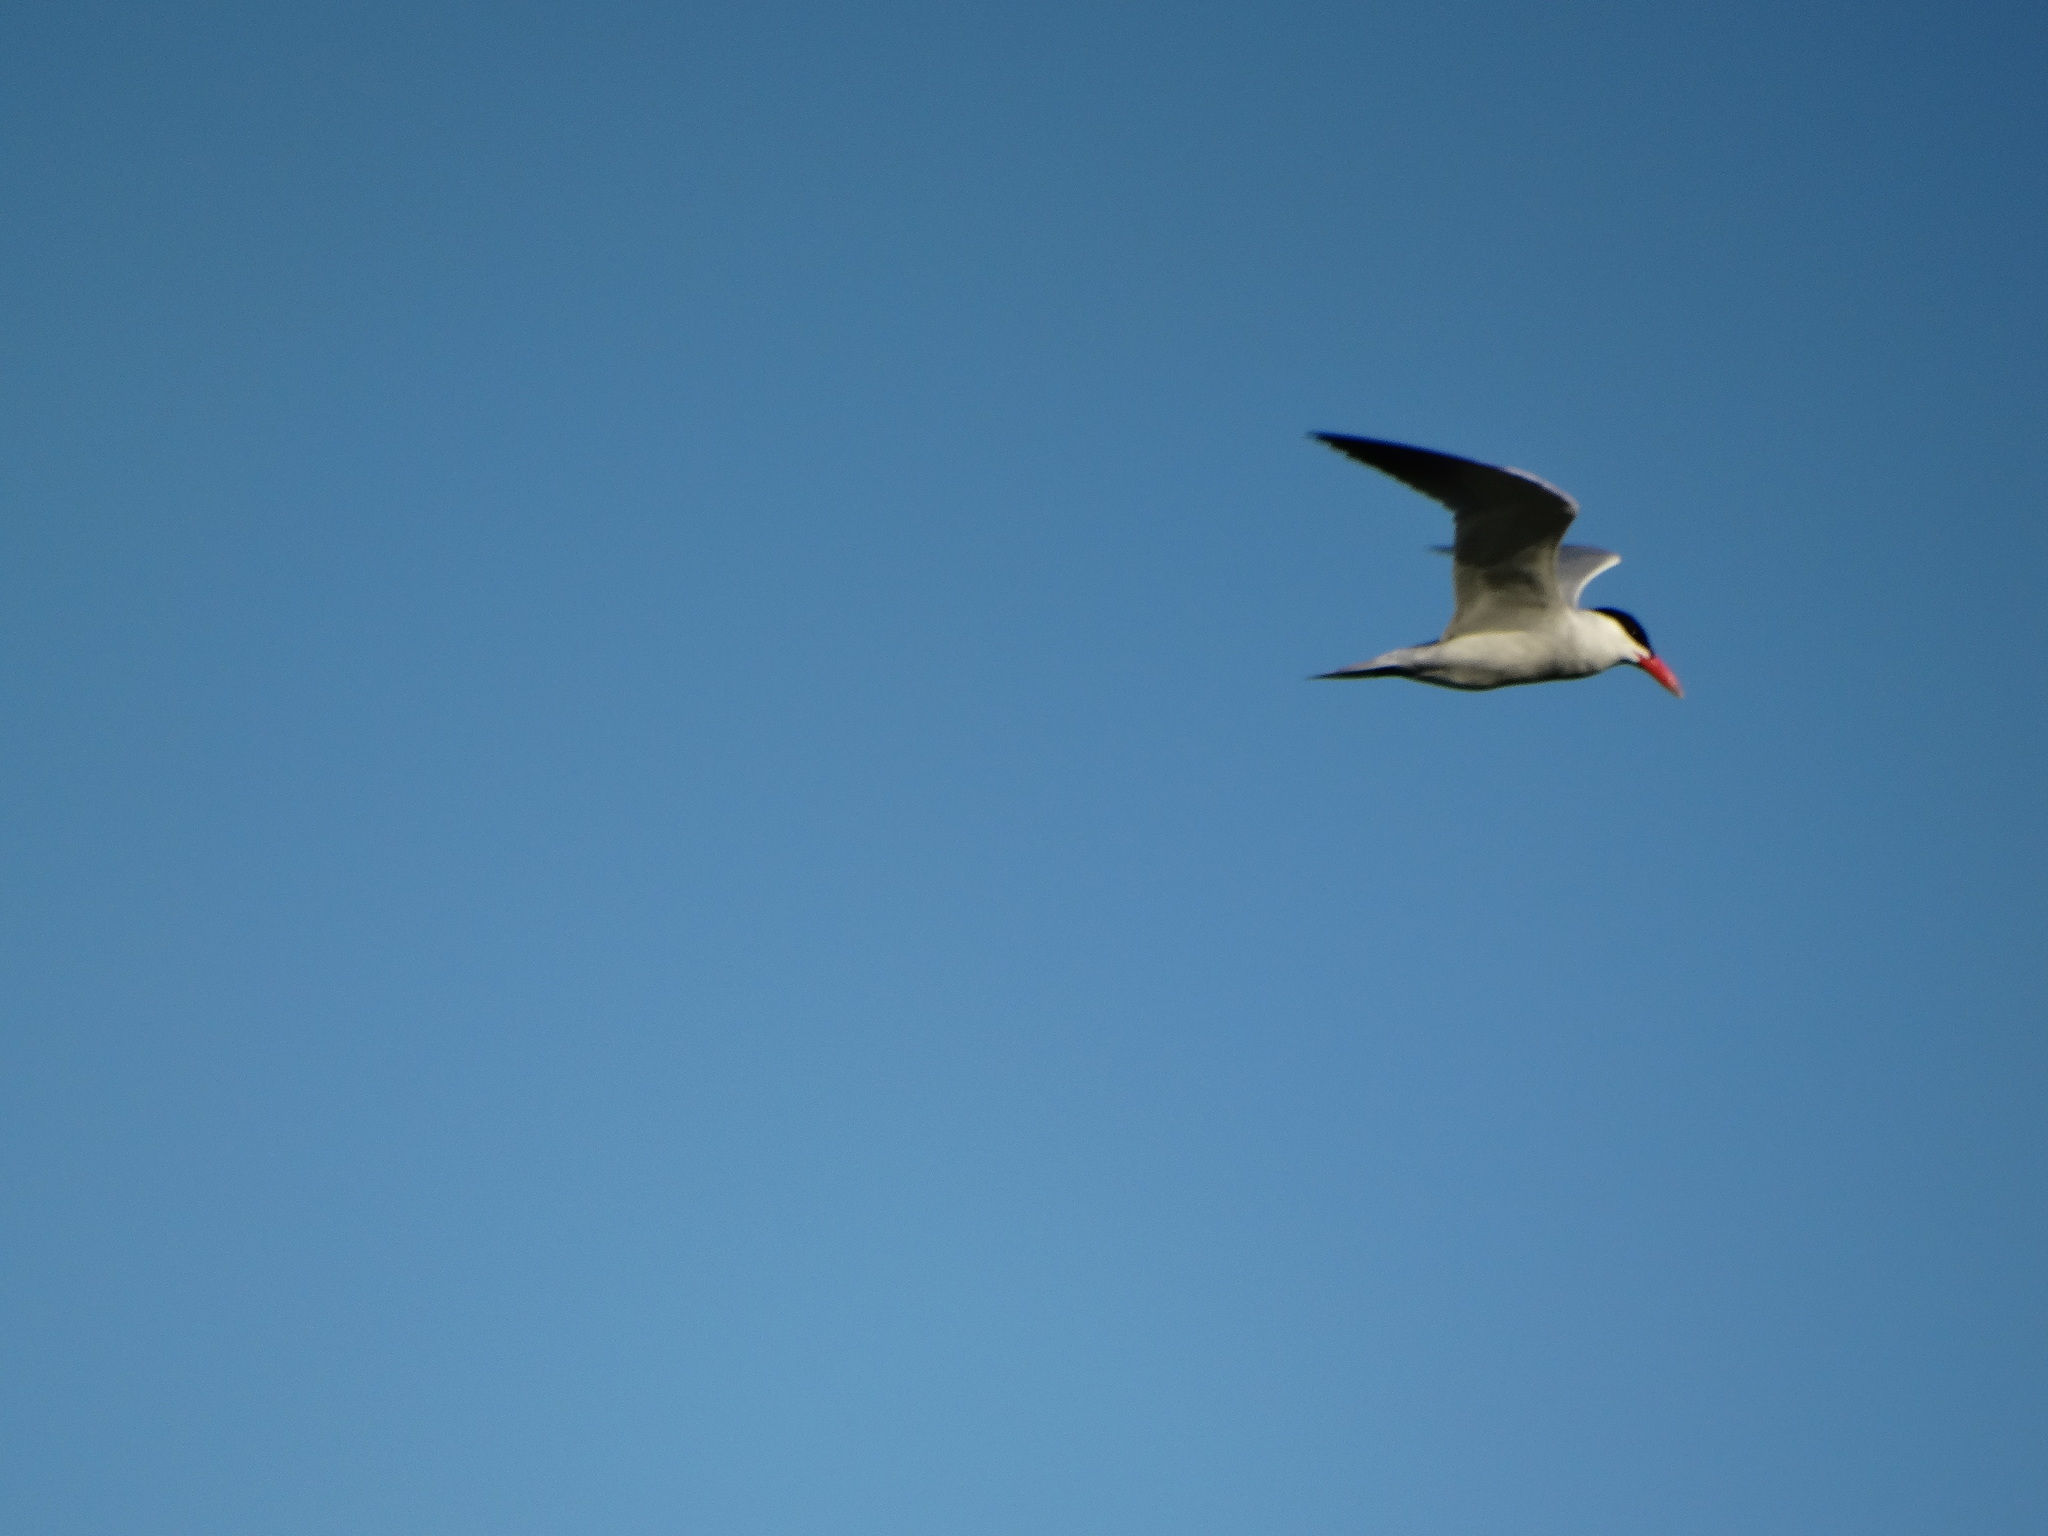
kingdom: Animalia
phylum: Chordata
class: Aves
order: Charadriiformes
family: Laridae
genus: Hydroprogne
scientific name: Hydroprogne caspia
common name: Caspian tern
